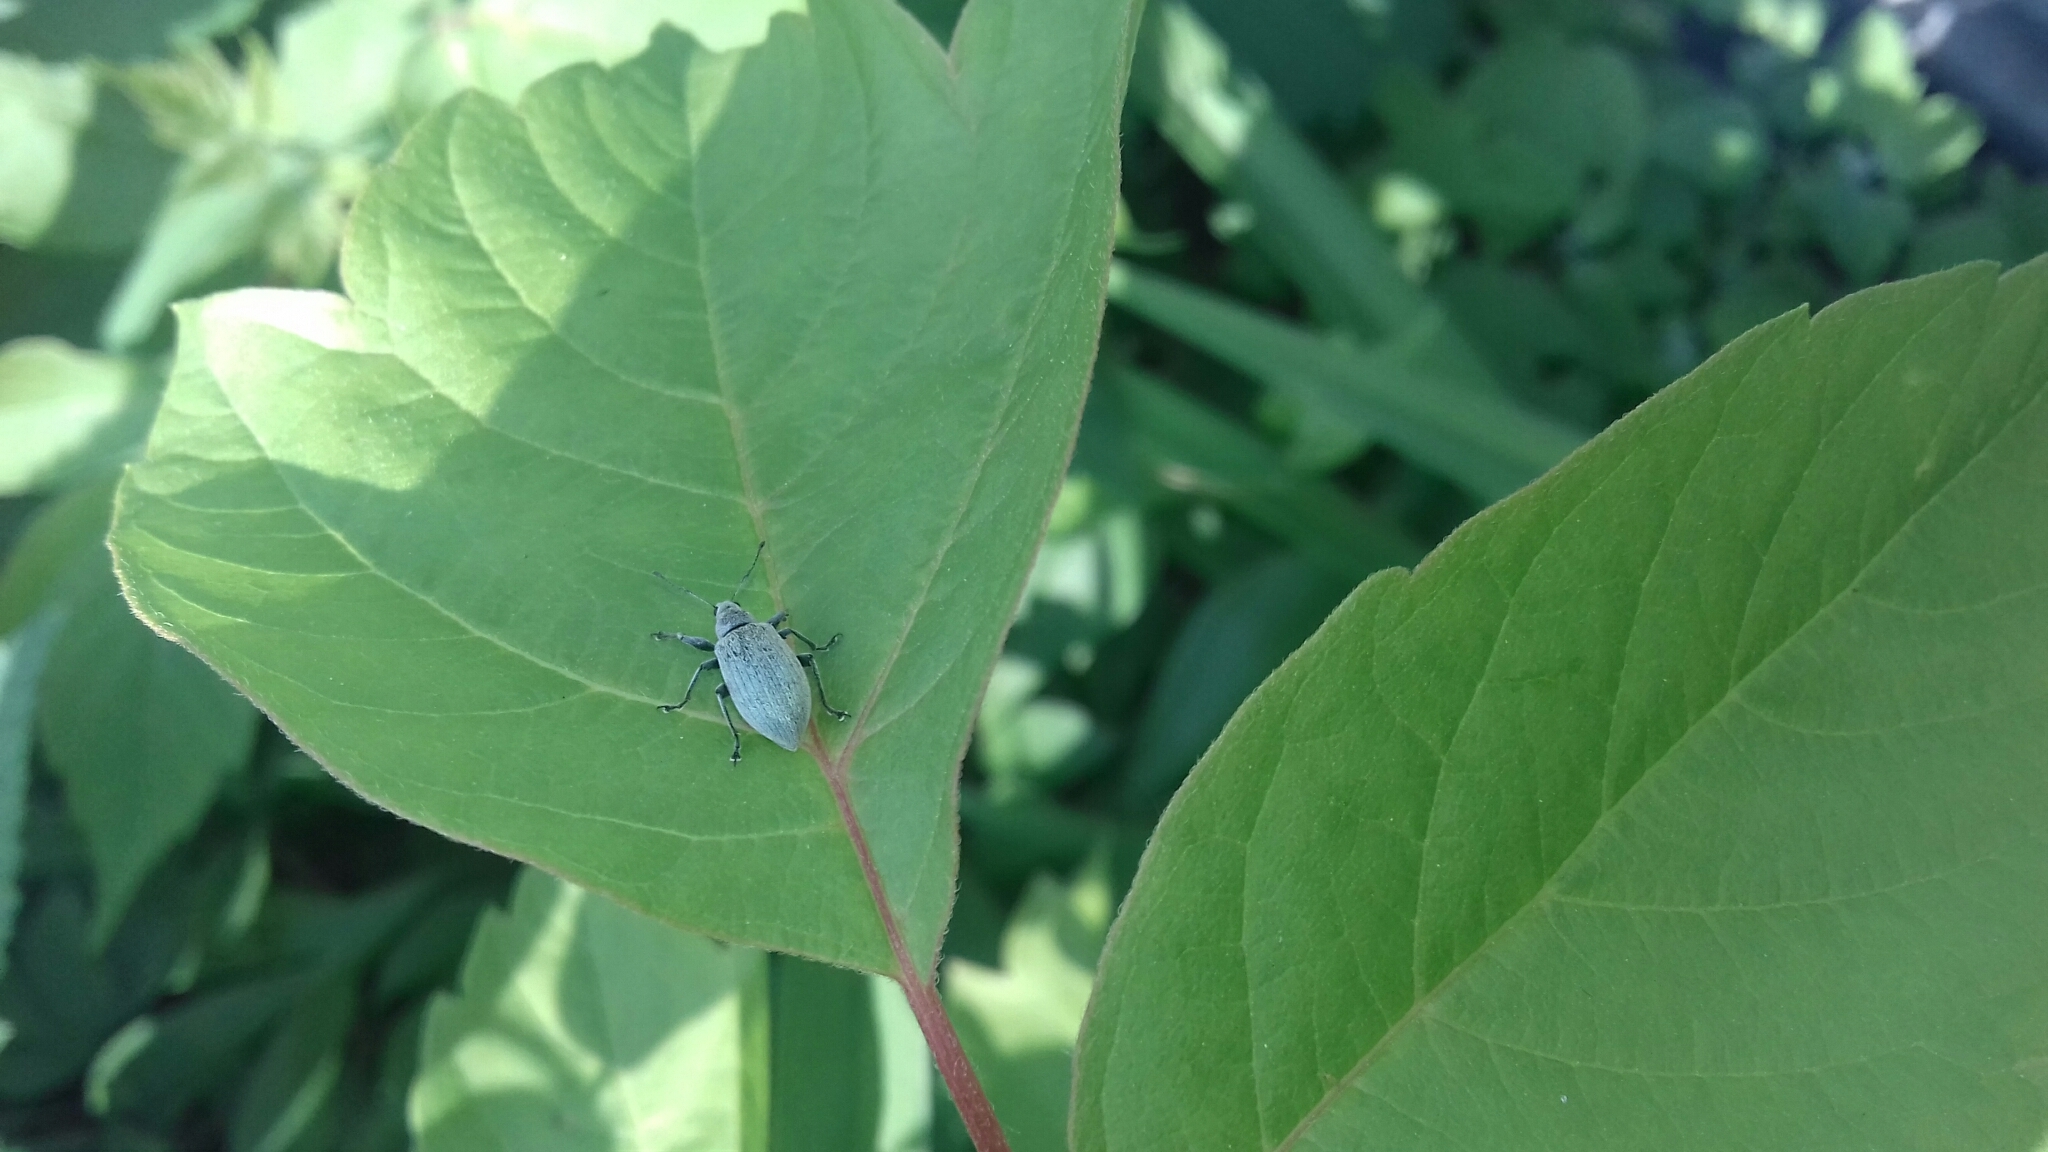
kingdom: Animalia
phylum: Arthropoda
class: Insecta
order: Coleoptera
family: Curculionidae
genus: Phyllobius
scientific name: Phyllobius pomaceus
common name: Green nettle weevil
